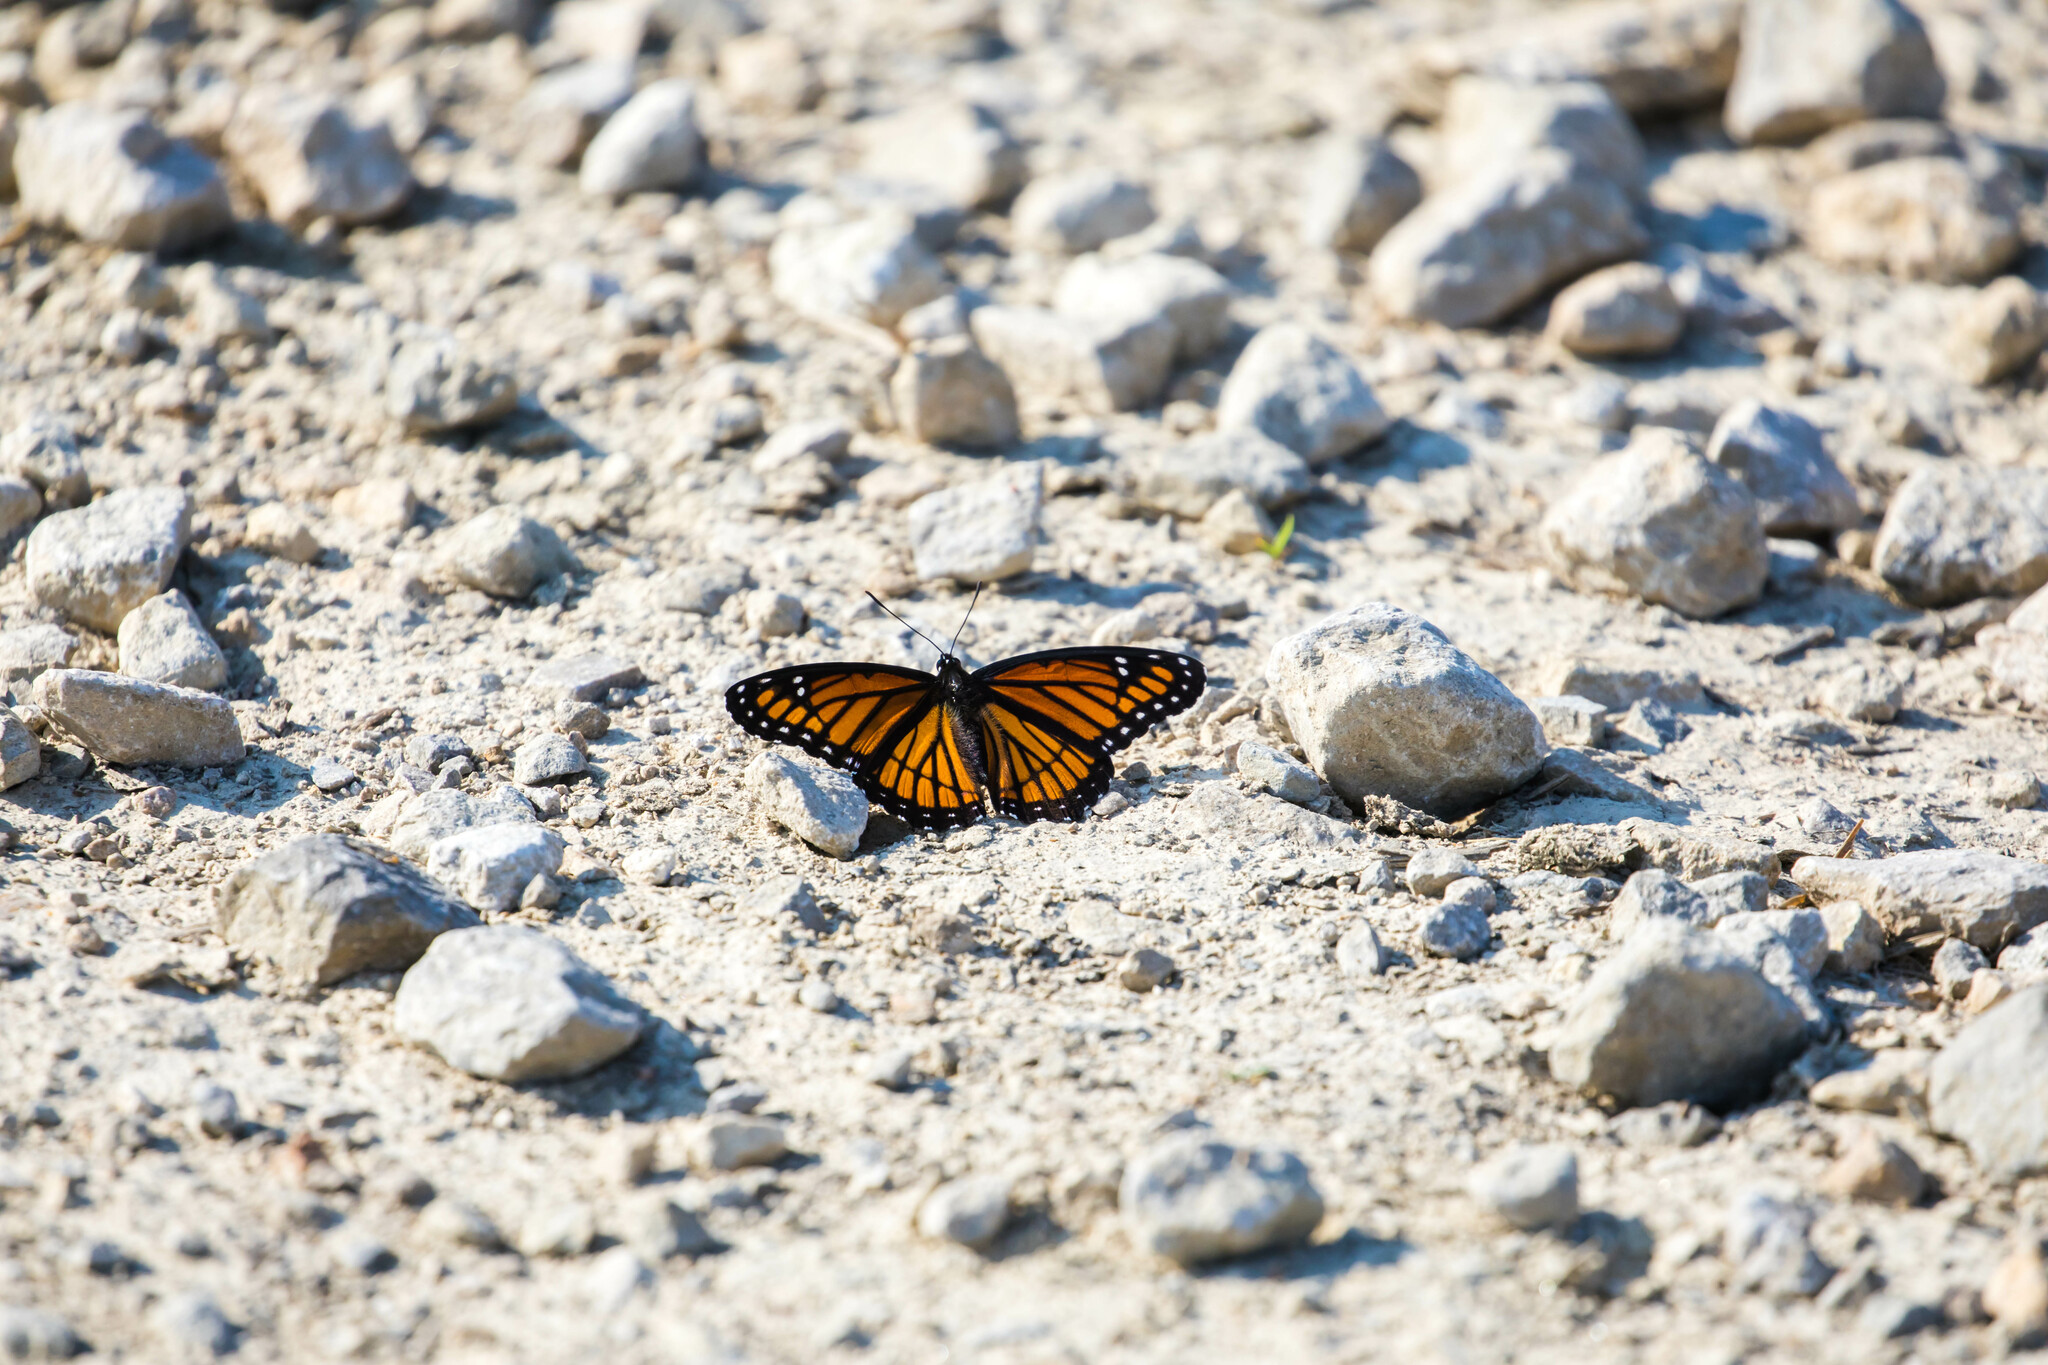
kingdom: Animalia
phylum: Arthropoda
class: Insecta
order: Lepidoptera
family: Nymphalidae
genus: Limenitis
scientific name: Limenitis archippus
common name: Viceroy
